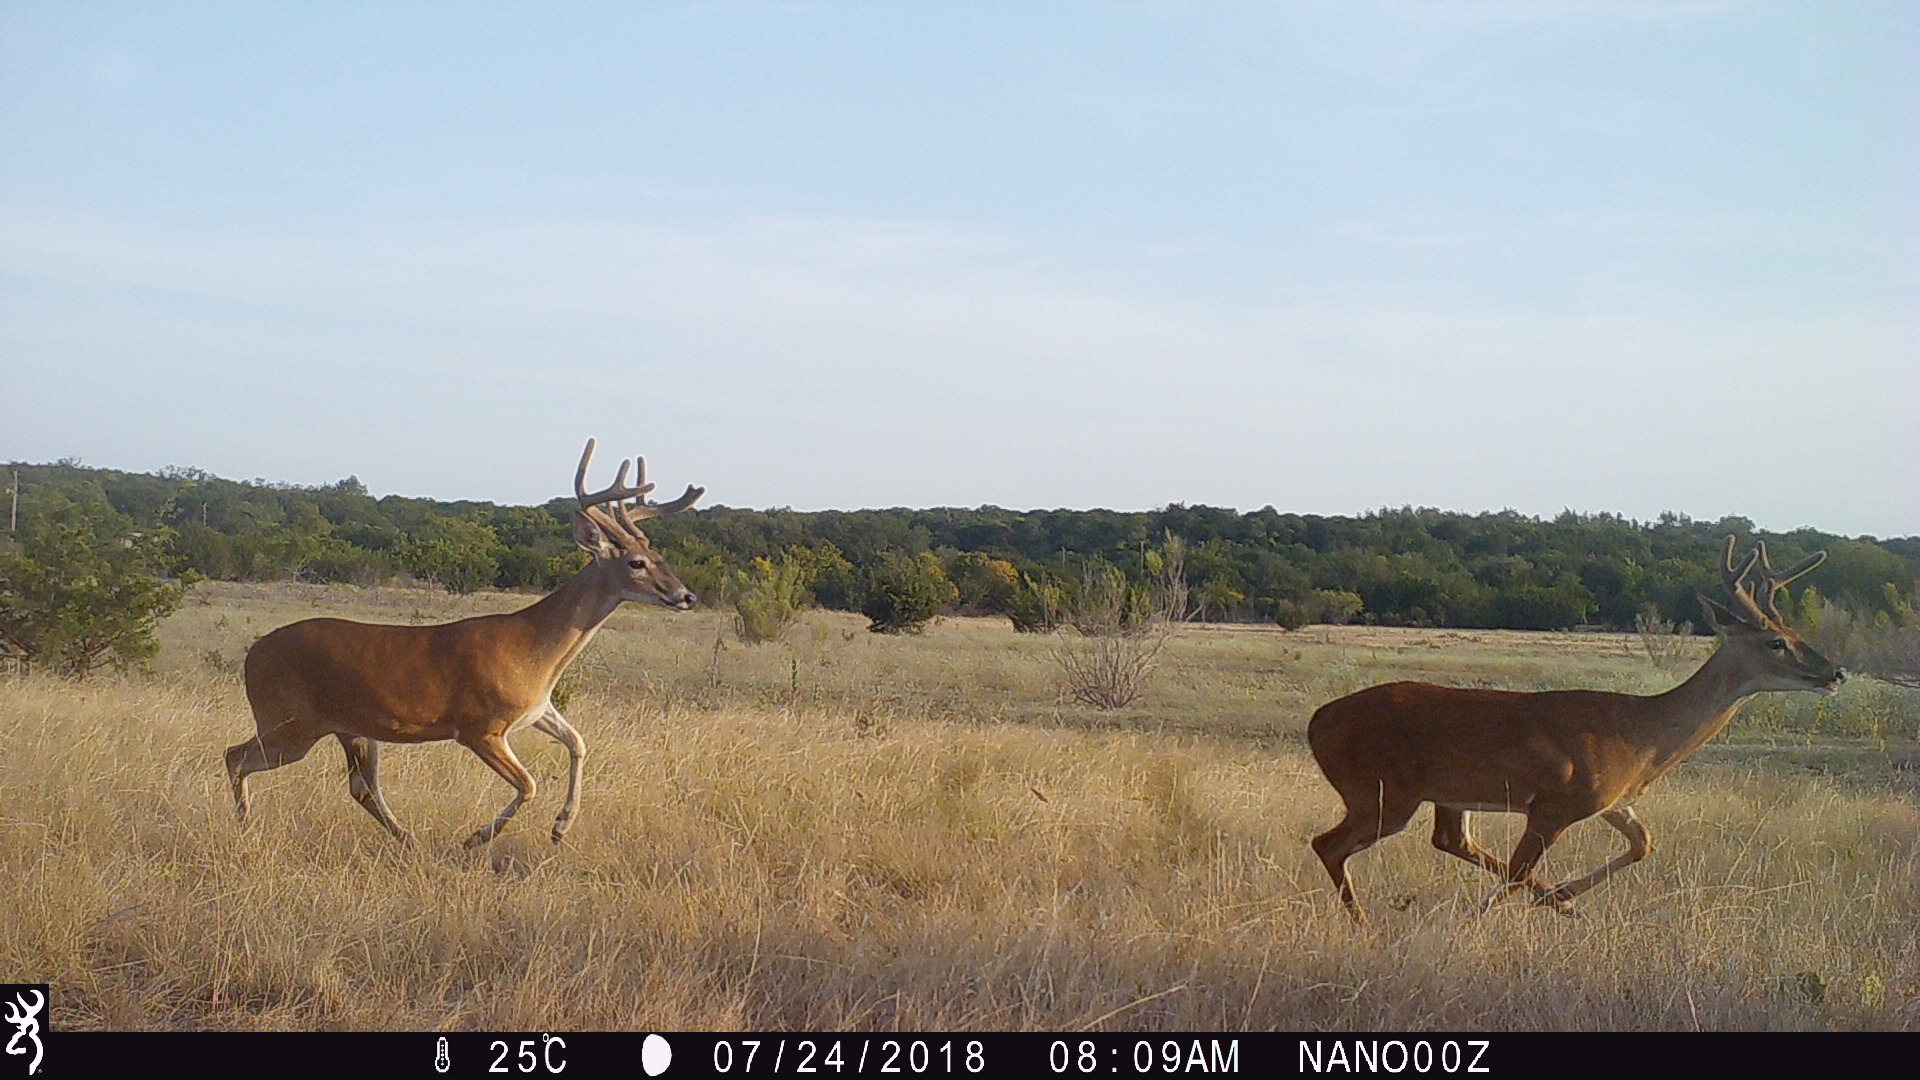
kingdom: Animalia
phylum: Chordata
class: Mammalia
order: Artiodactyla
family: Cervidae
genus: Odocoileus
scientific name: Odocoileus virginianus
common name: White-tailed deer
